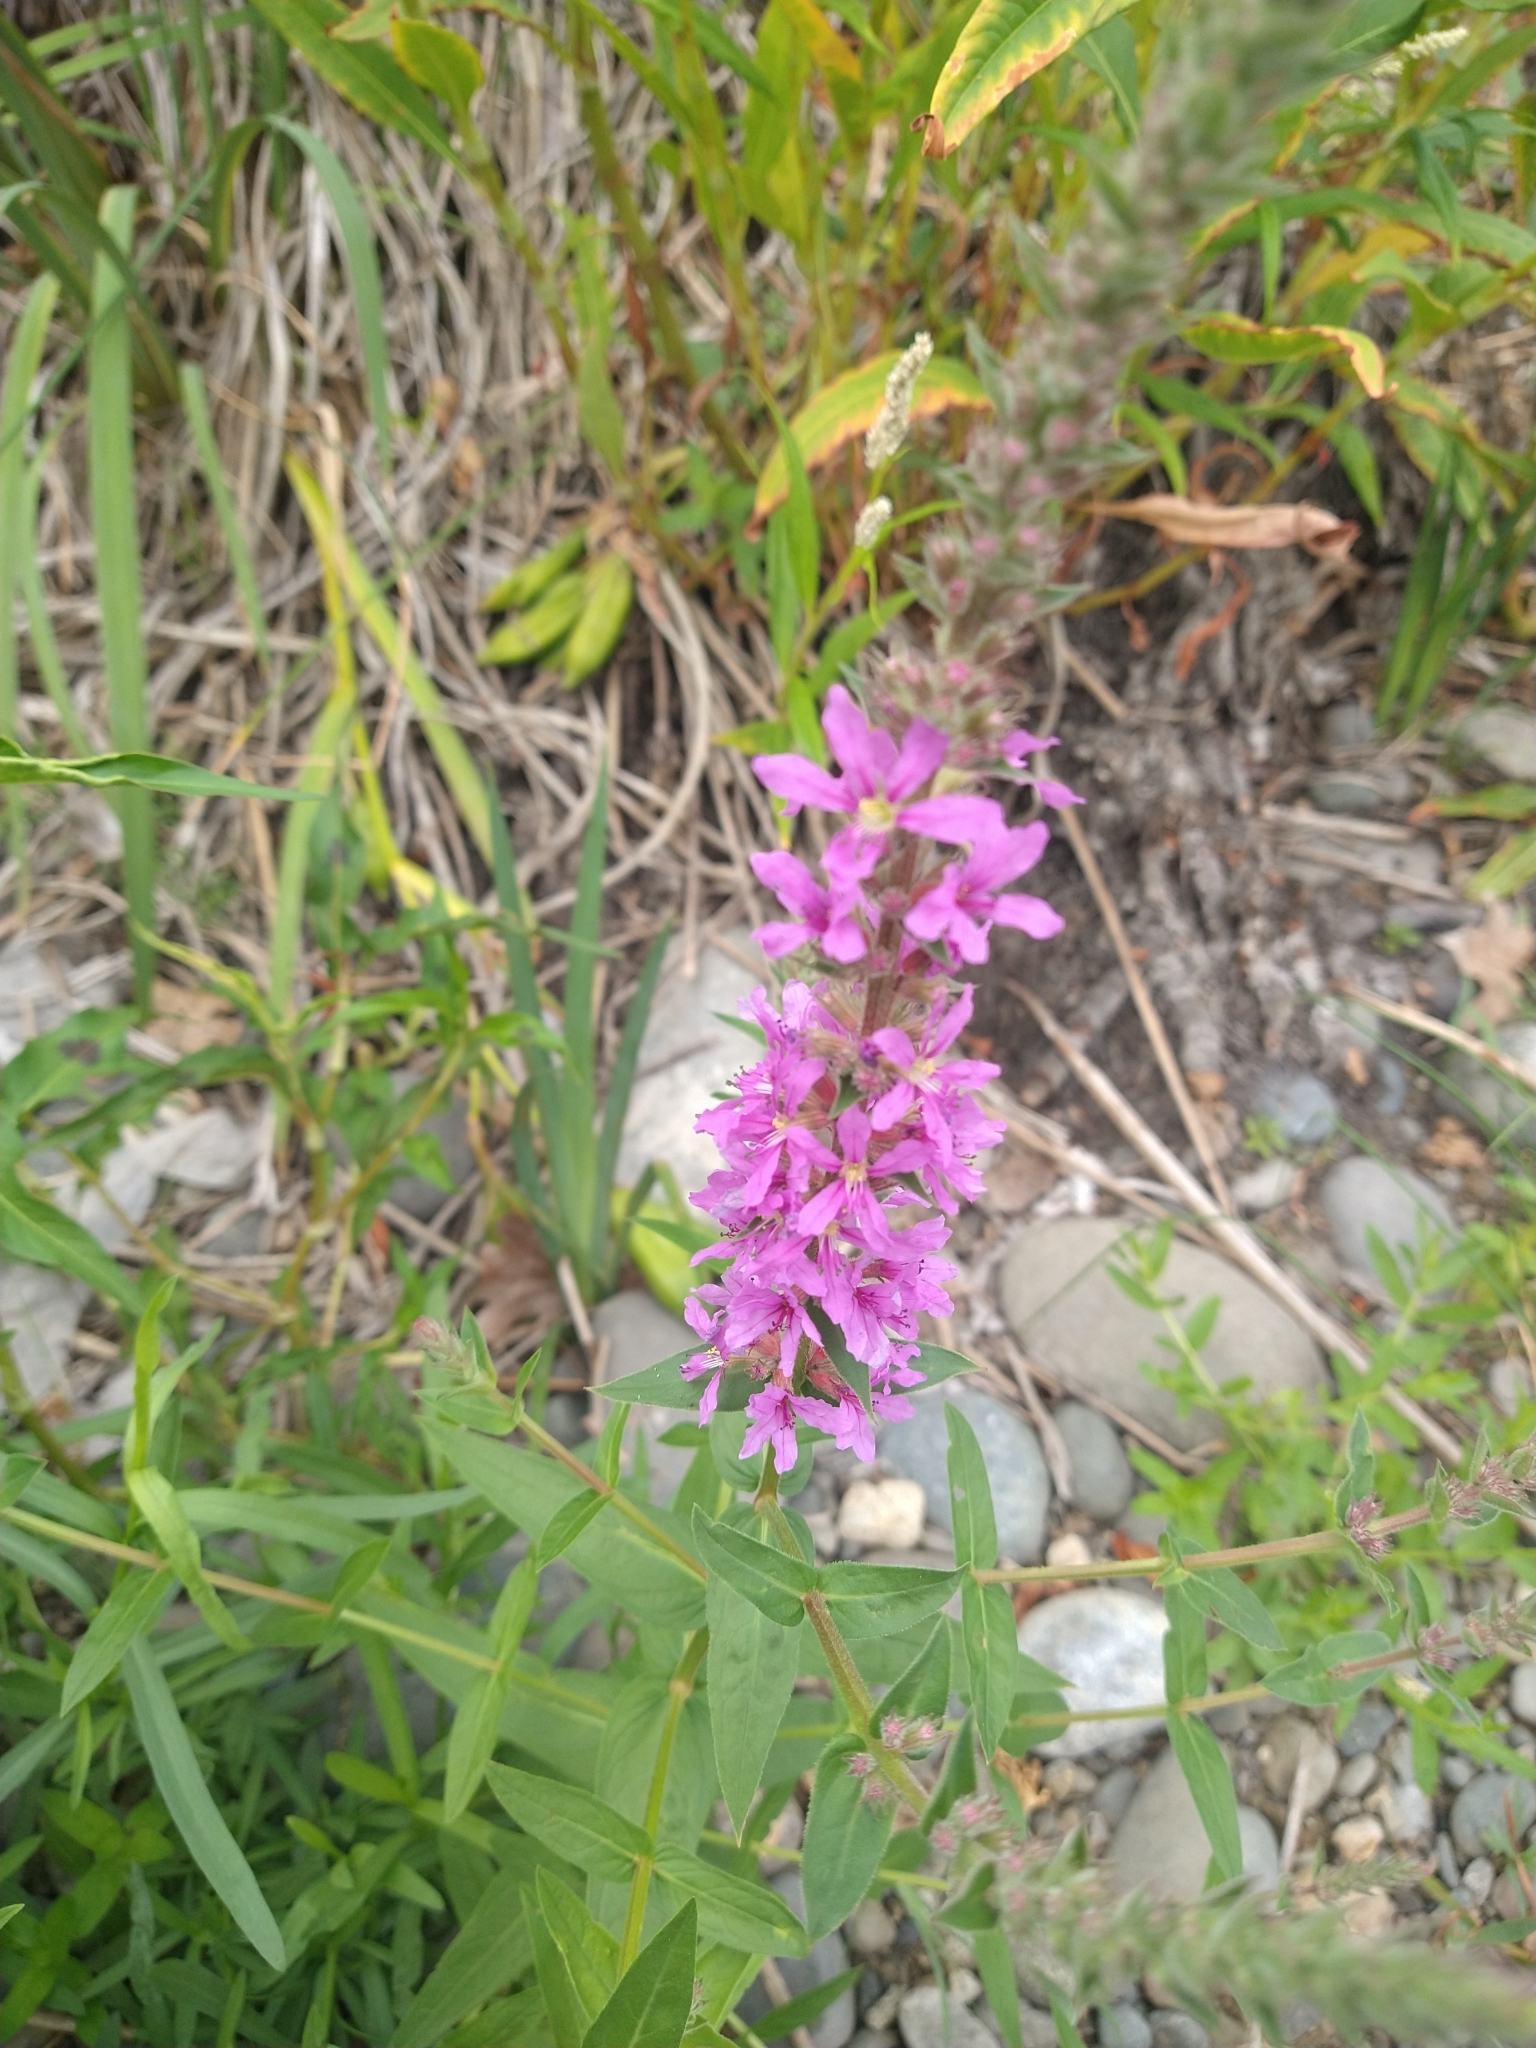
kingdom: Plantae
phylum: Tracheophyta
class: Magnoliopsida
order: Myrtales
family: Lythraceae
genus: Lythrum
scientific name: Lythrum salicaria
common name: Purple loosestrife
